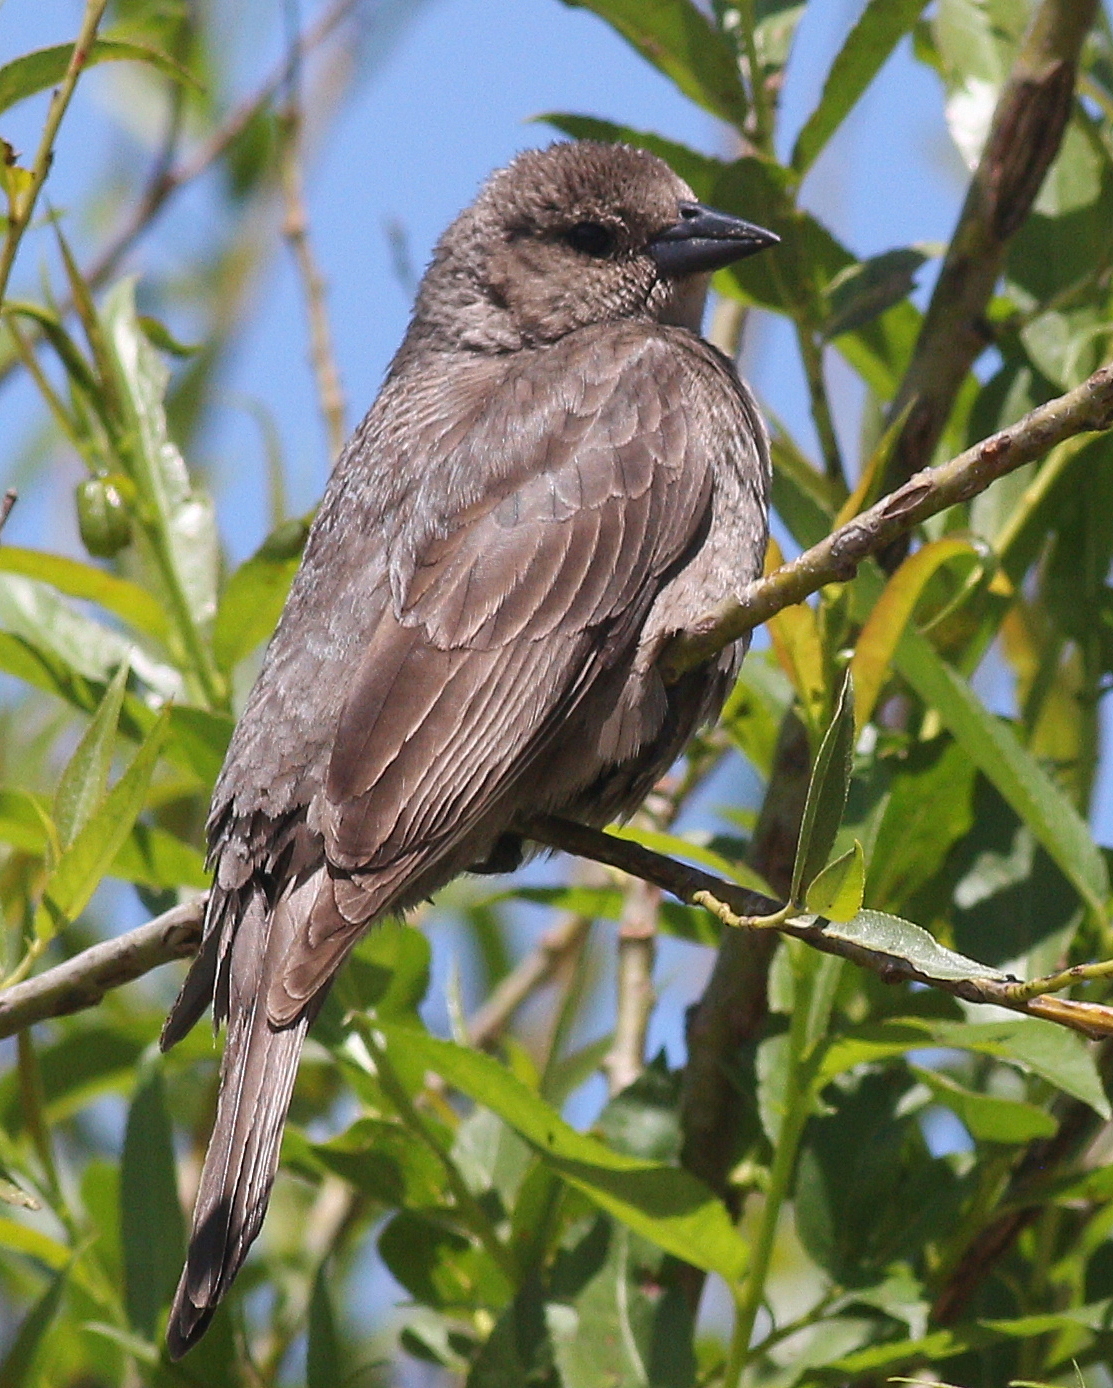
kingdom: Animalia
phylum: Chordata
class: Aves
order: Passeriformes
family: Icteridae
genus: Molothrus
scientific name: Molothrus bonariensis
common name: Shiny cowbird
